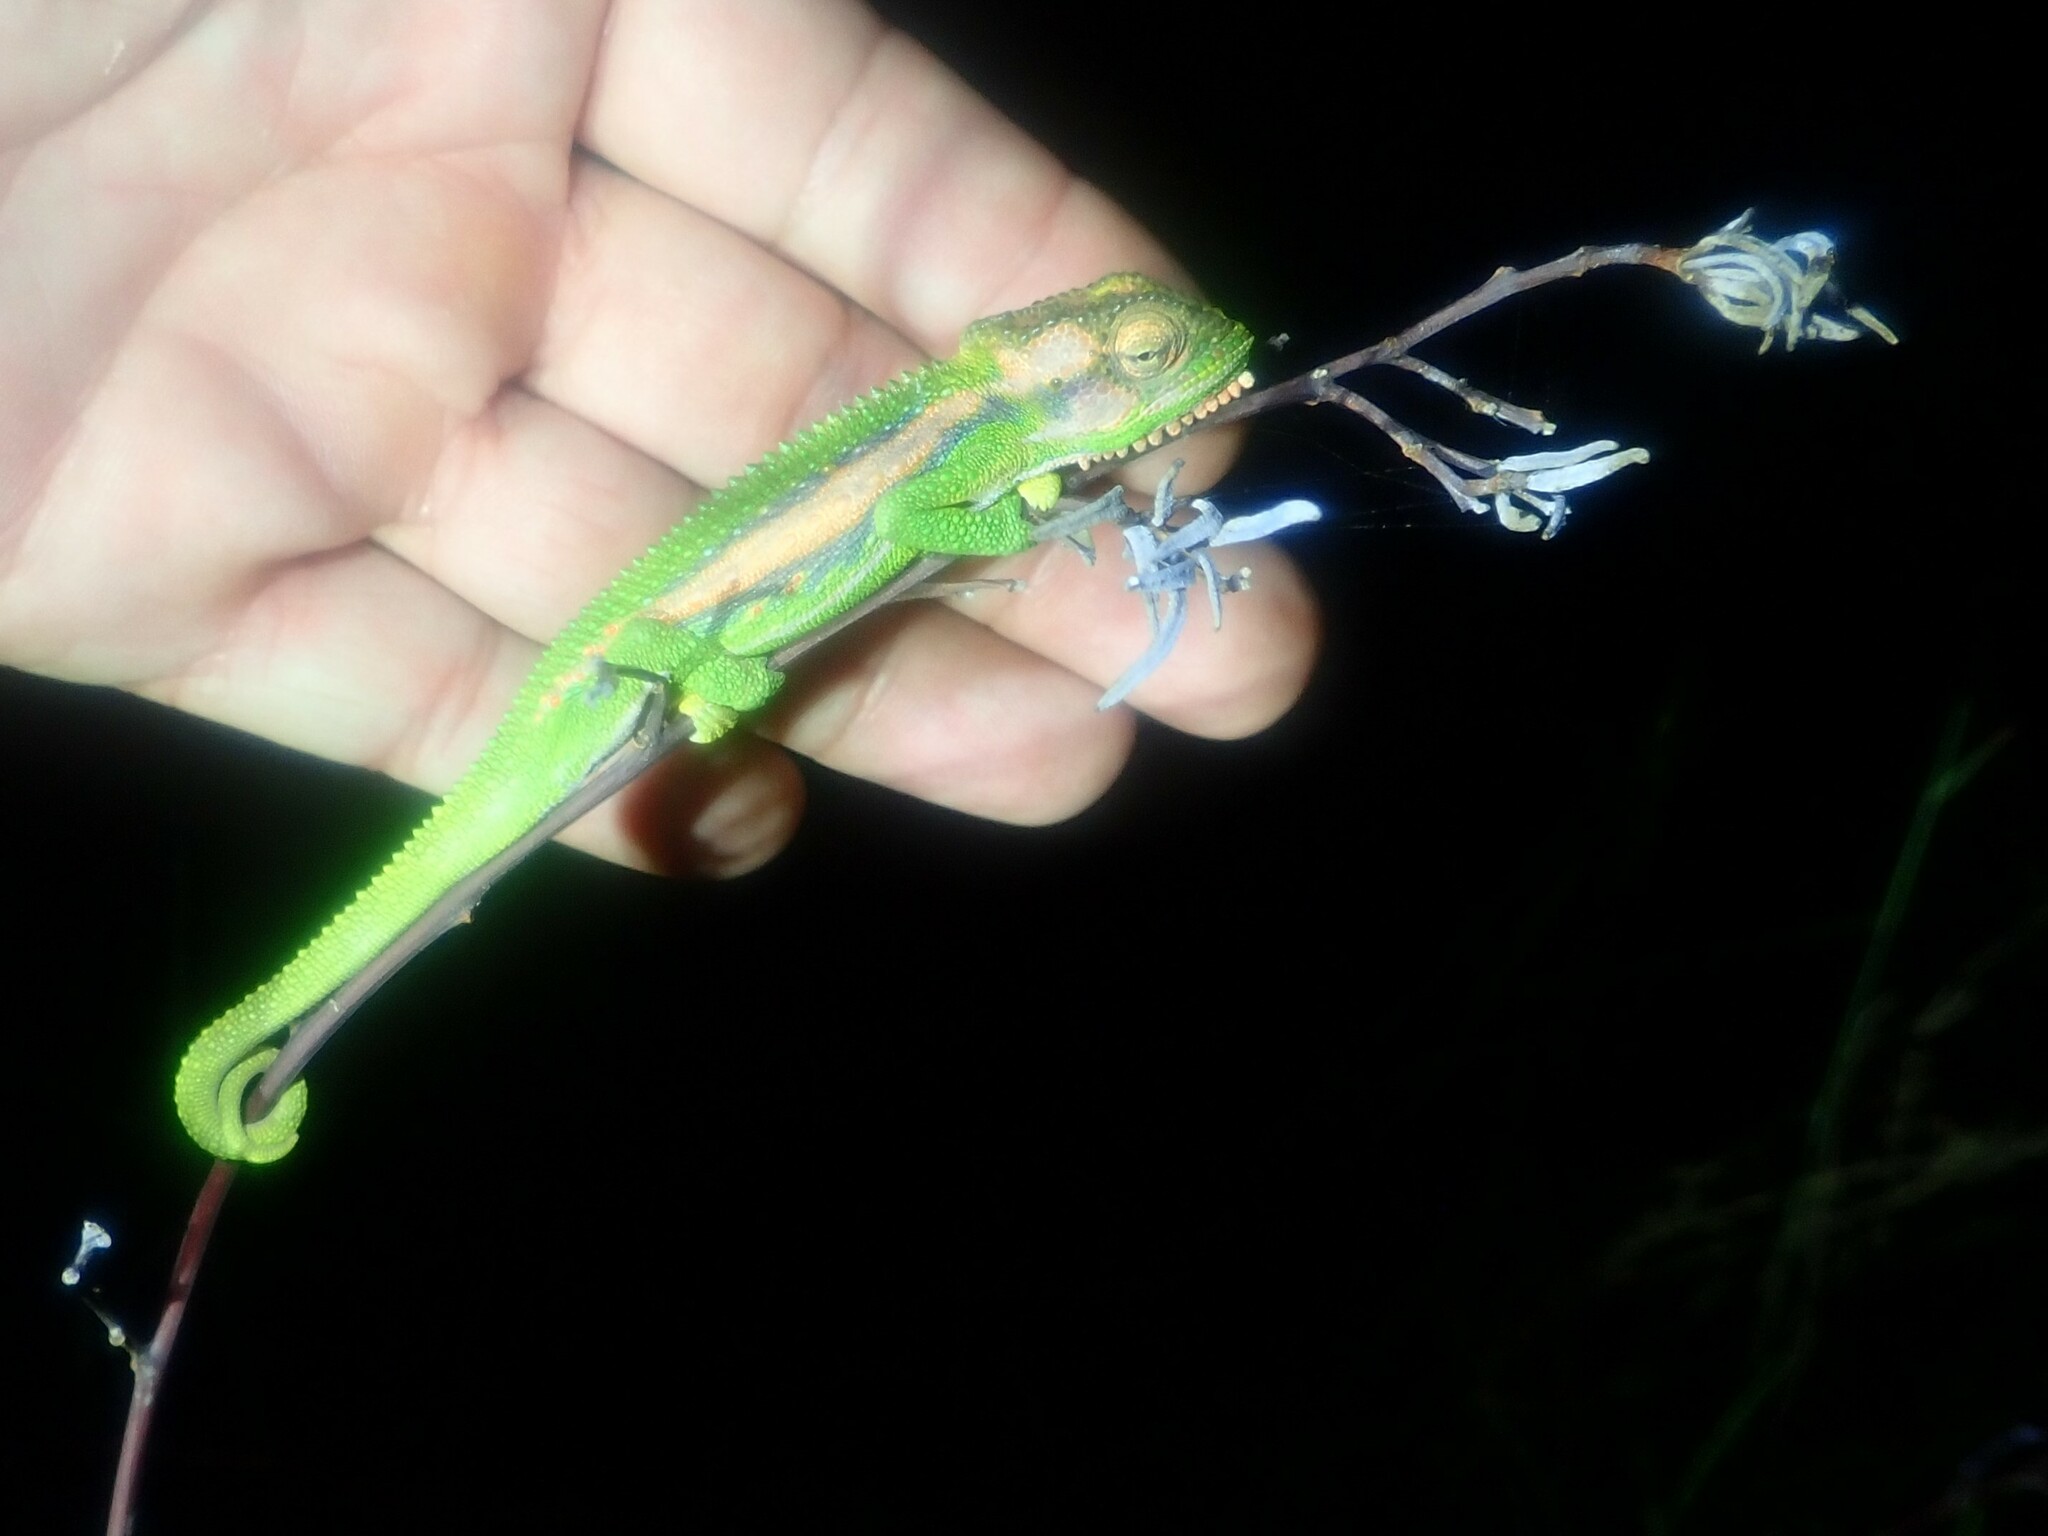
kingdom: Animalia
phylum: Chordata
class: Squamata
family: Chamaeleonidae
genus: Bradypodion
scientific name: Bradypodion pumilum
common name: Cape dwarf chameleon
